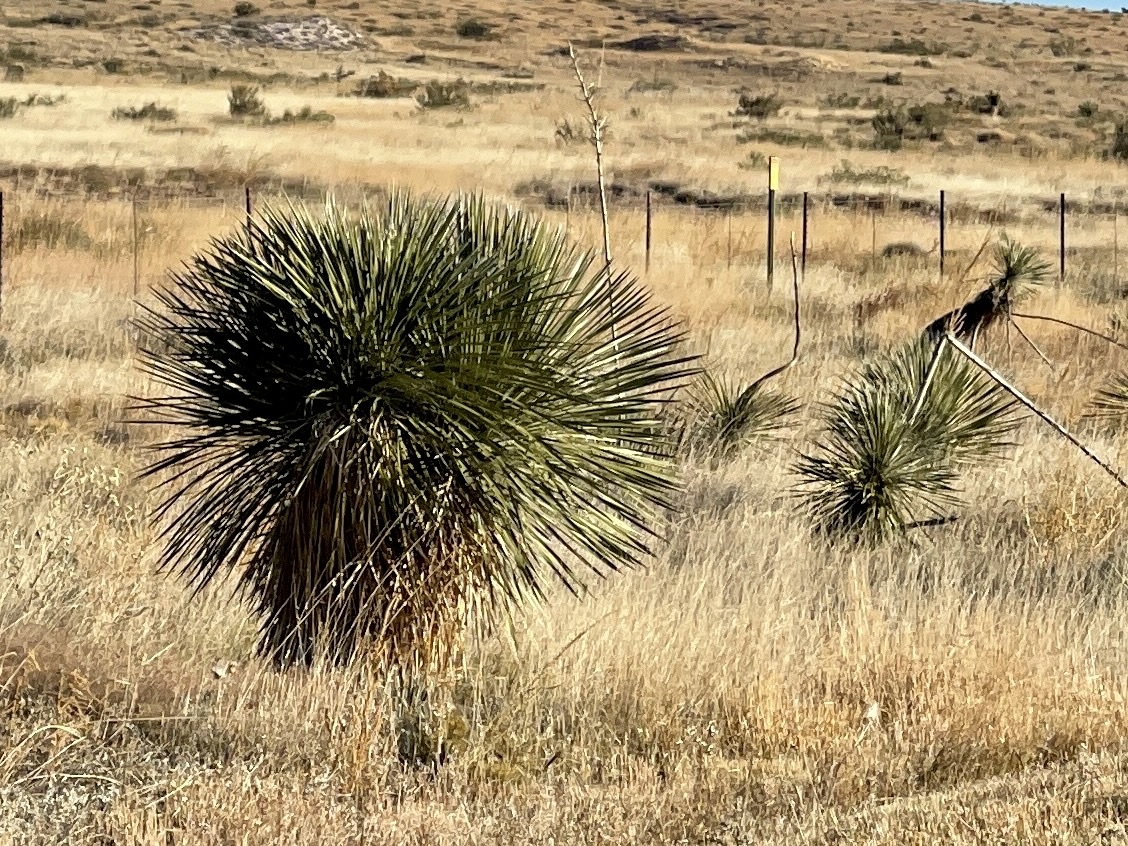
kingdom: Plantae
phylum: Tracheophyta
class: Liliopsida
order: Asparagales
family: Asparagaceae
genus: Yucca
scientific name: Yucca elata
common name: Palmella
